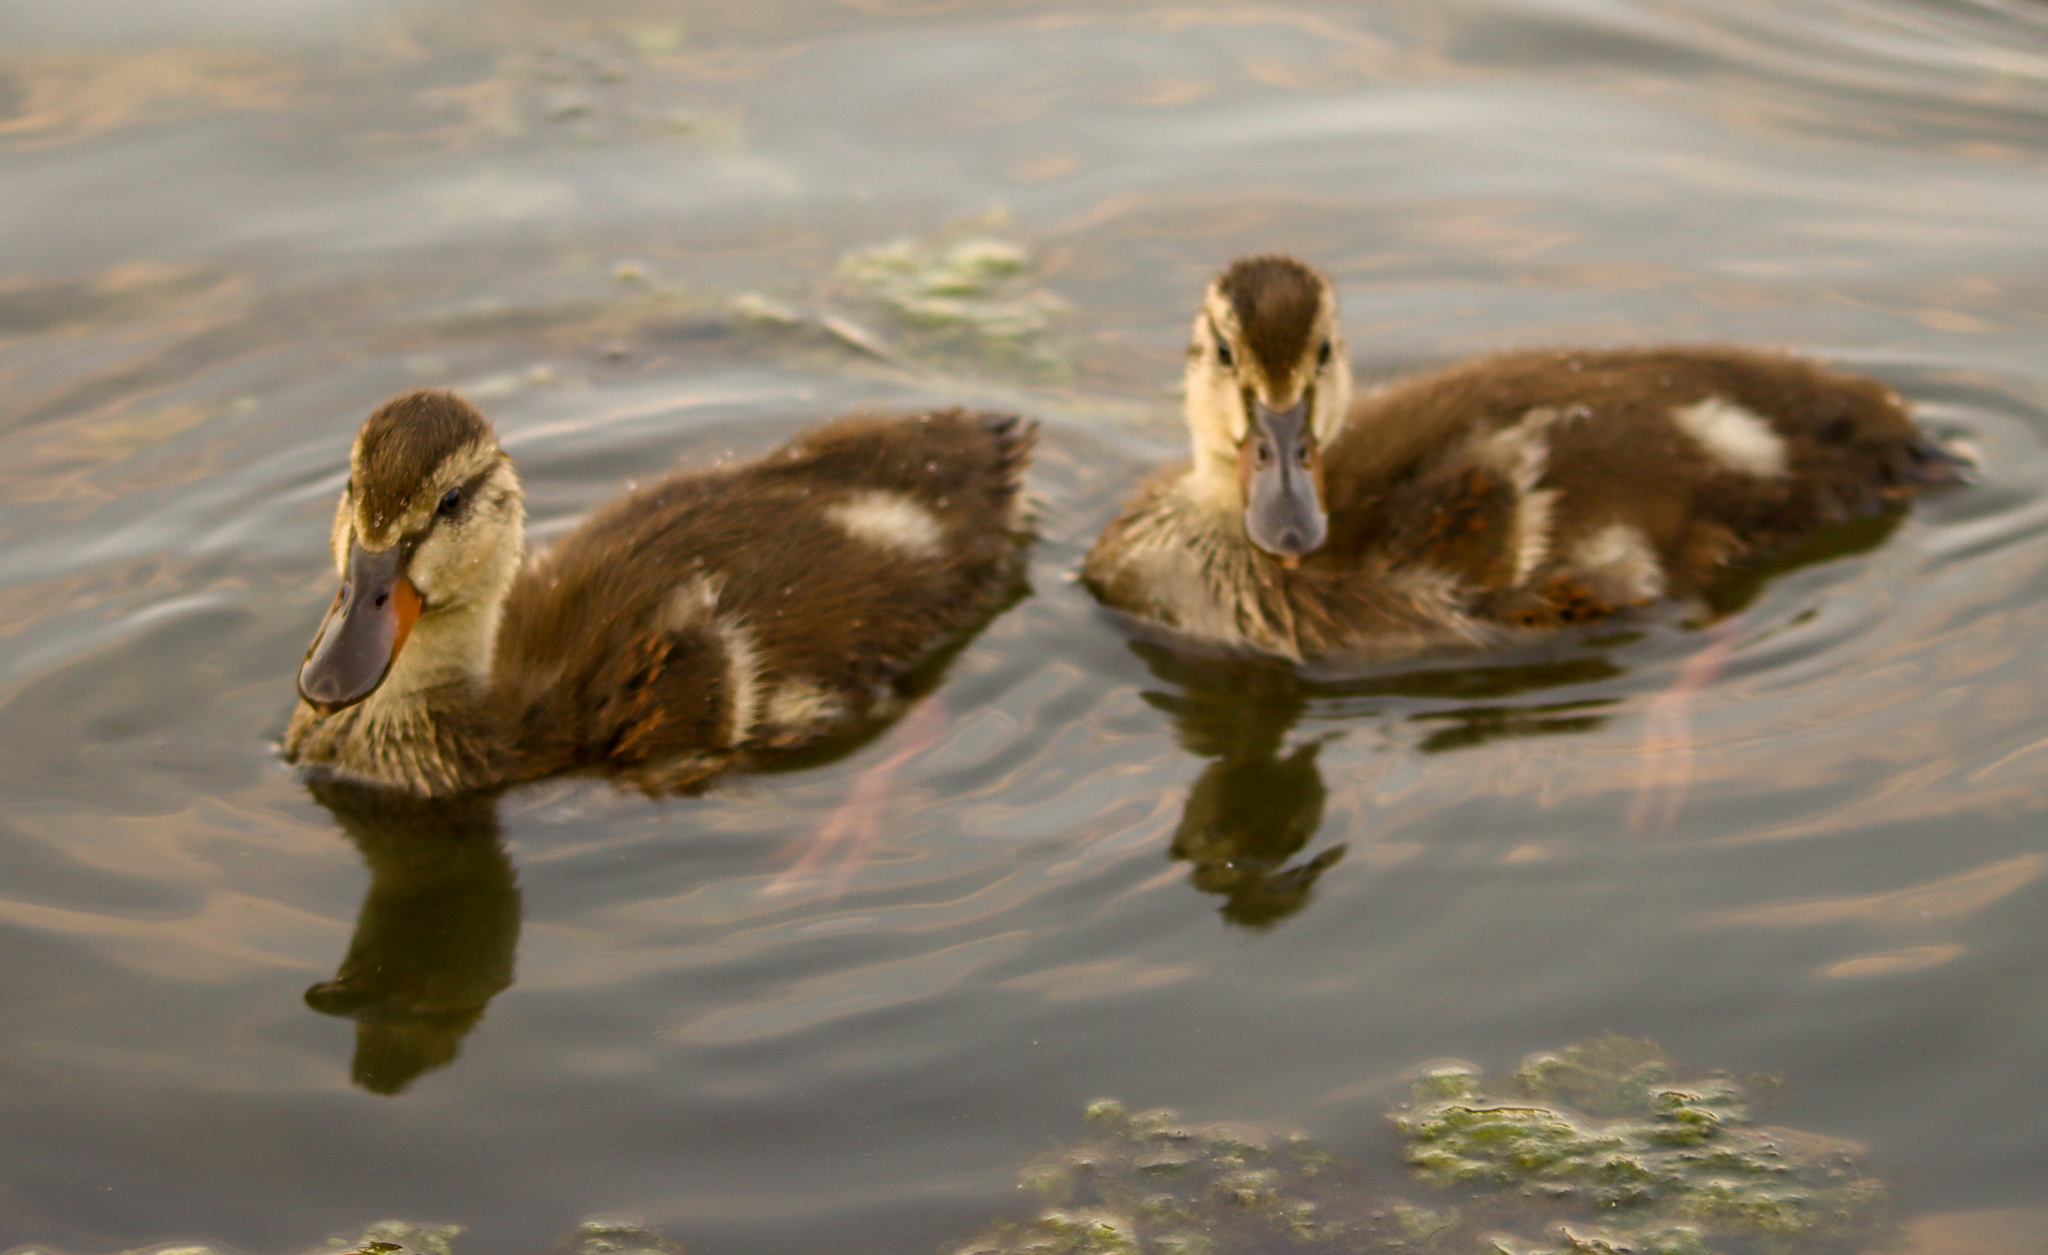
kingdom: Animalia
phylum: Chordata
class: Aves
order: Anseriformes
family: Anatidae
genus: Anas
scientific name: Anas platyrhynchos
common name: Mallard
